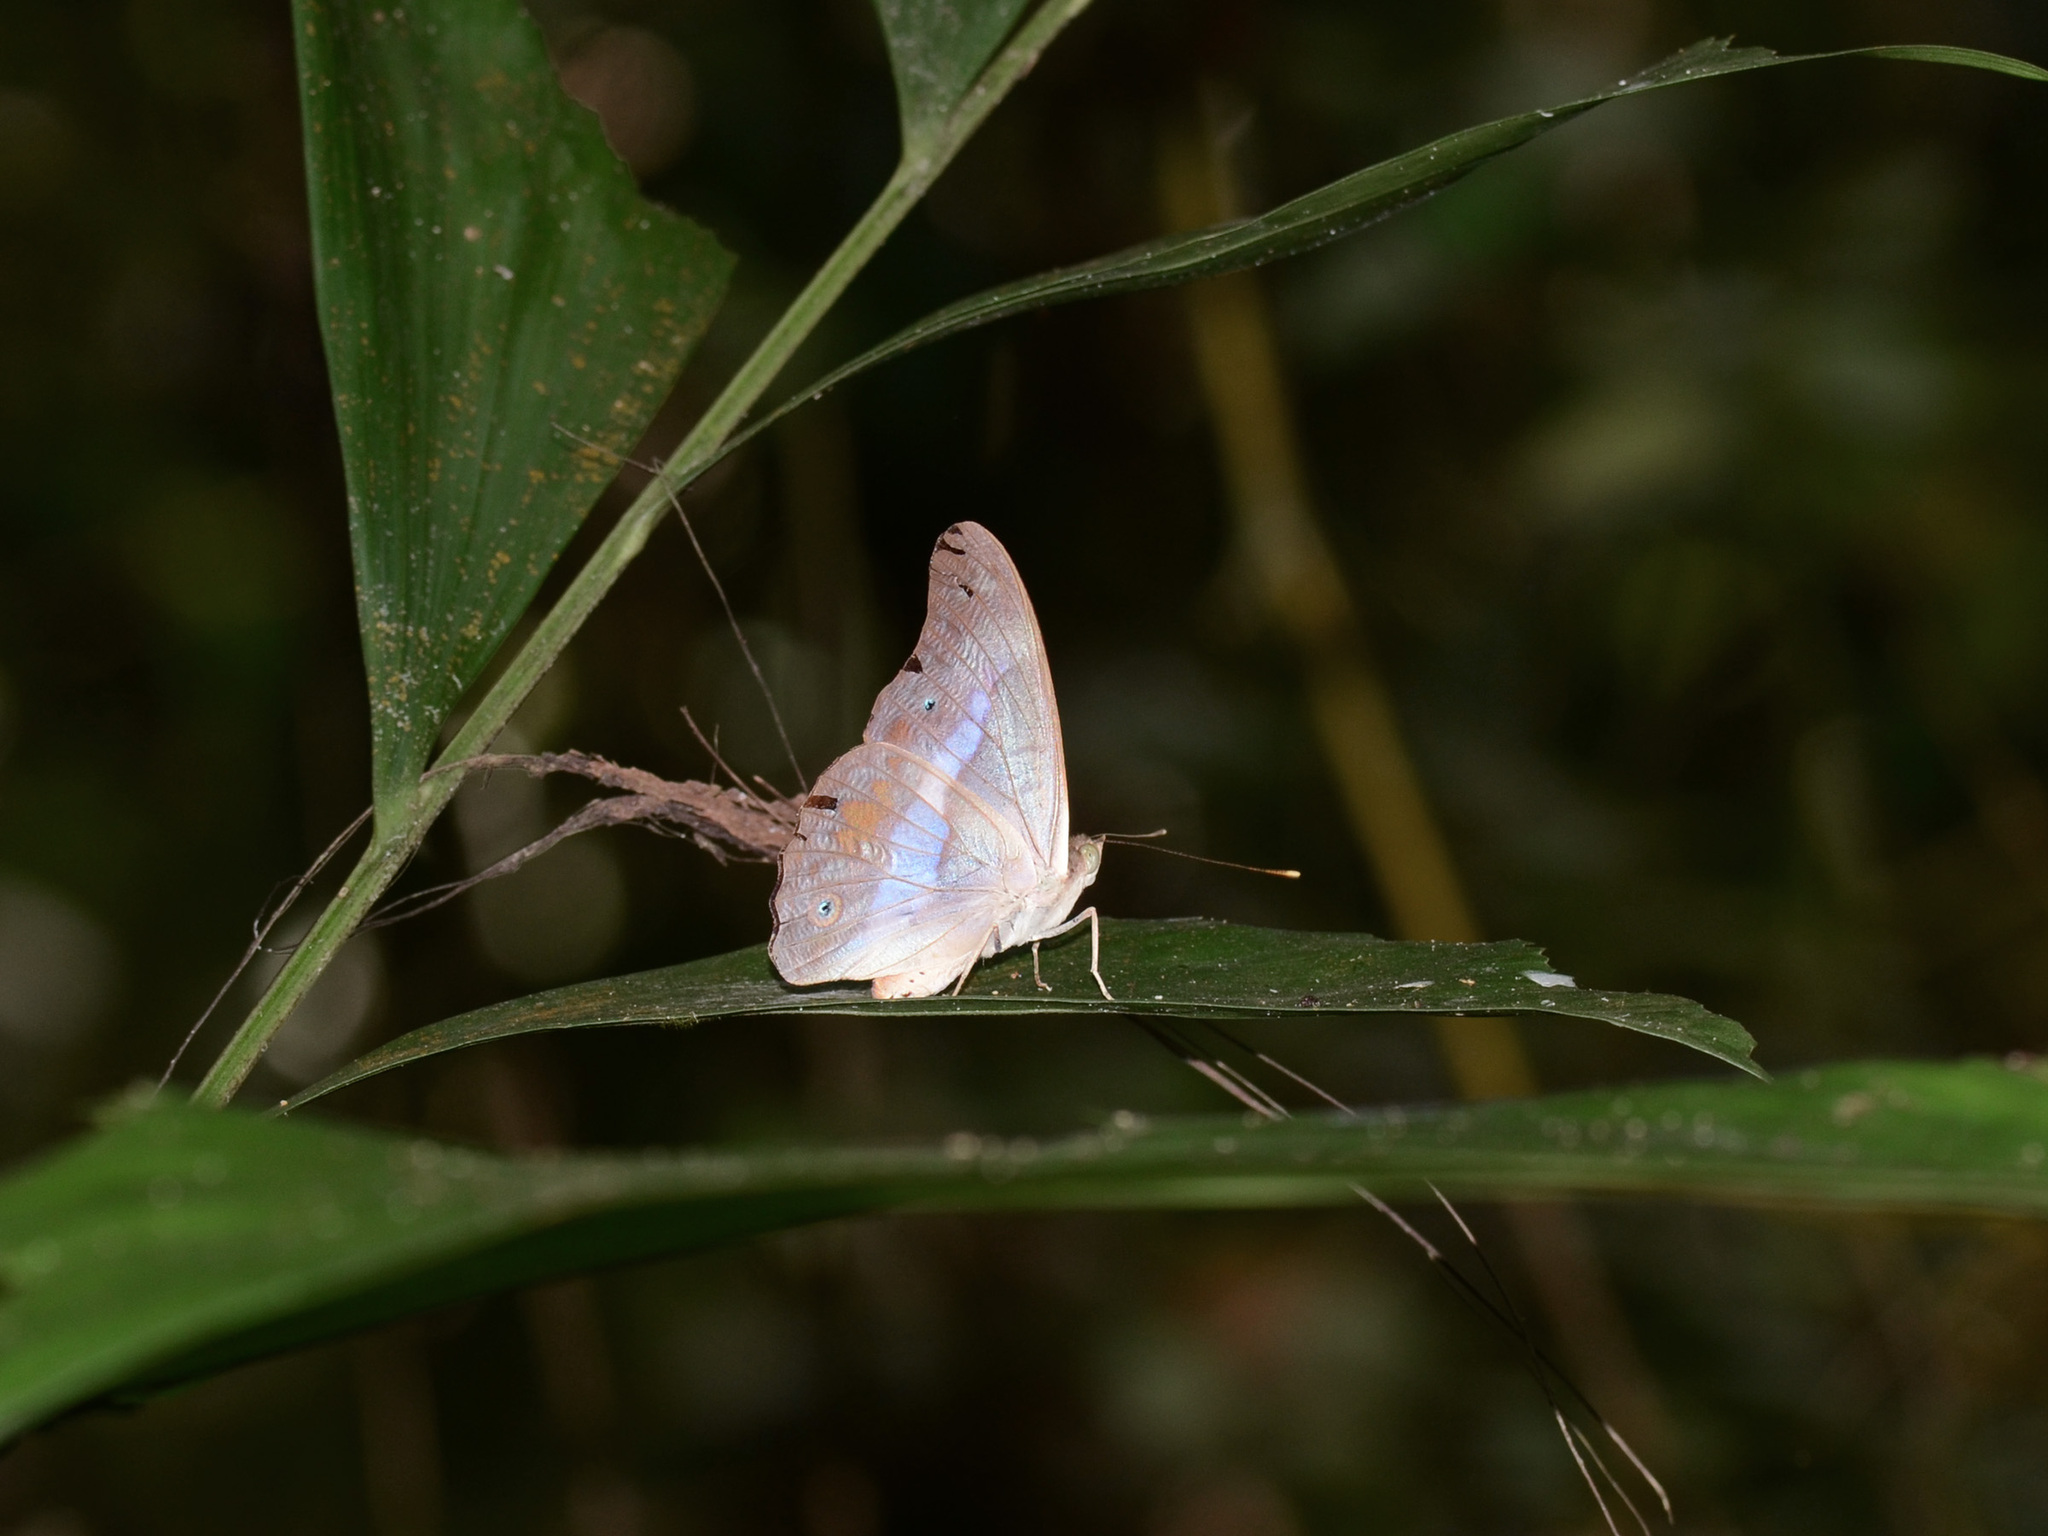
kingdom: Animalia
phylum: Arthropoda
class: Insecta
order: Lepidoptera
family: Nymphalidae
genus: Eulaceura
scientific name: Eulaceura osteria
